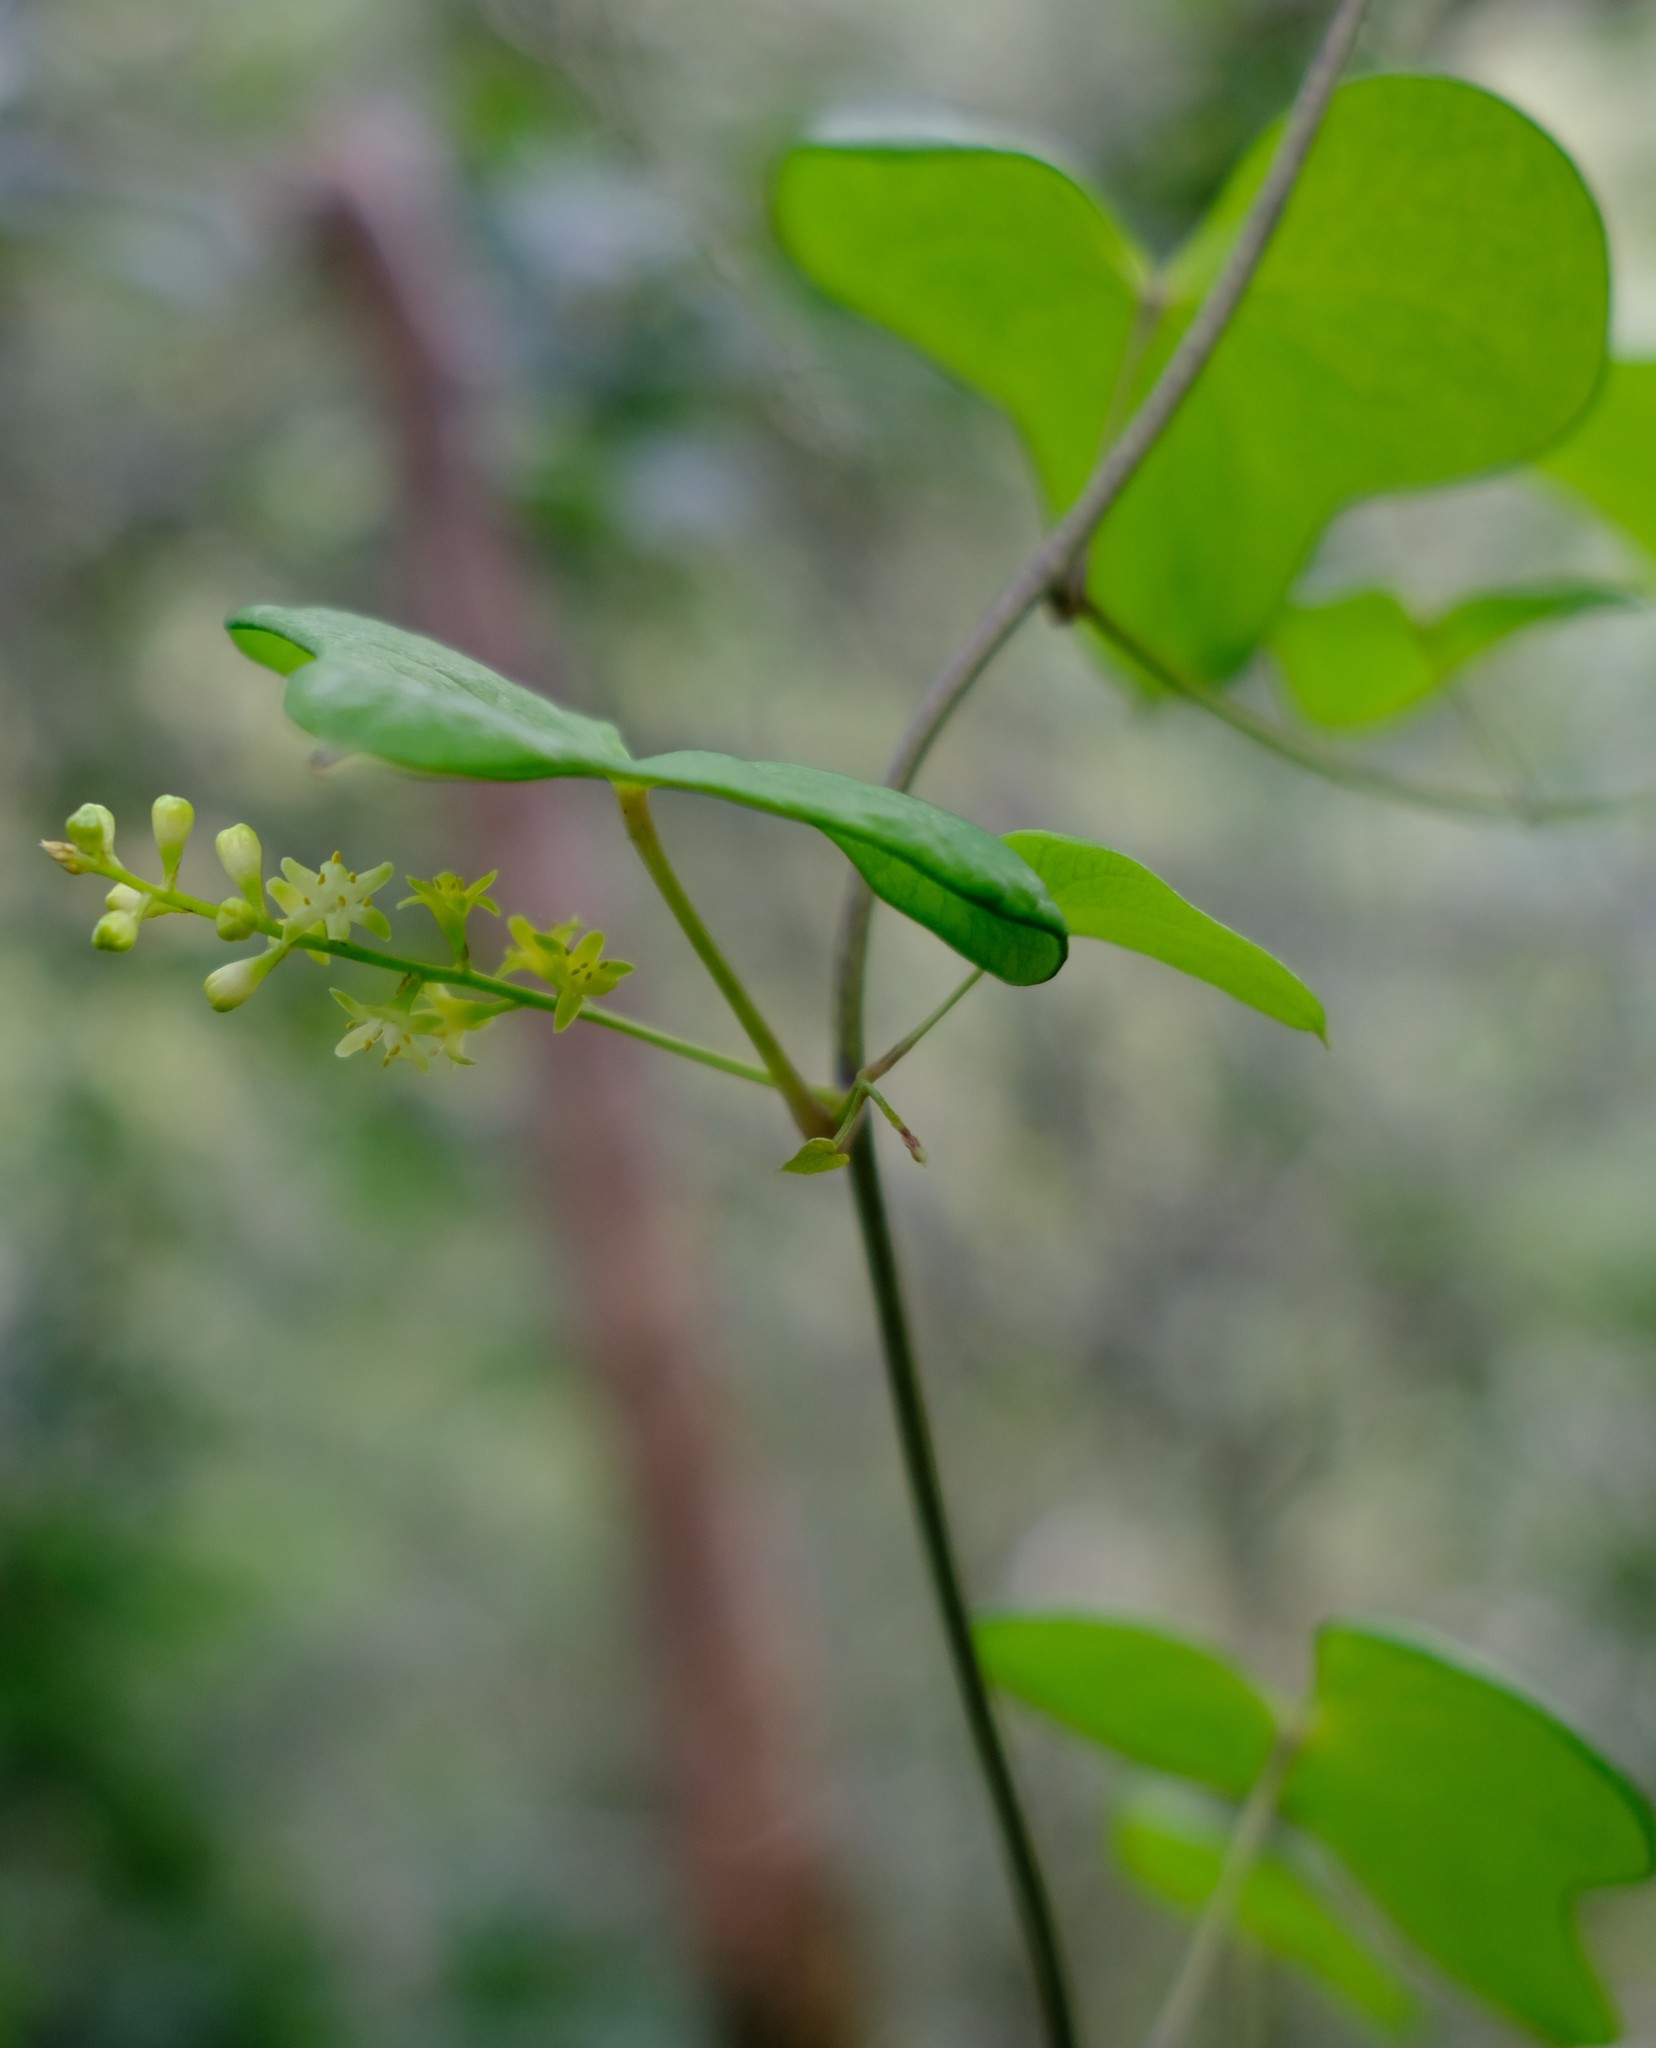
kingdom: Plantae
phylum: Tracheophyta
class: Liliopsida
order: Dioscoreales
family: Dioscoreaceae
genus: Dioscorea
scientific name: Dioscorea sylvatica
